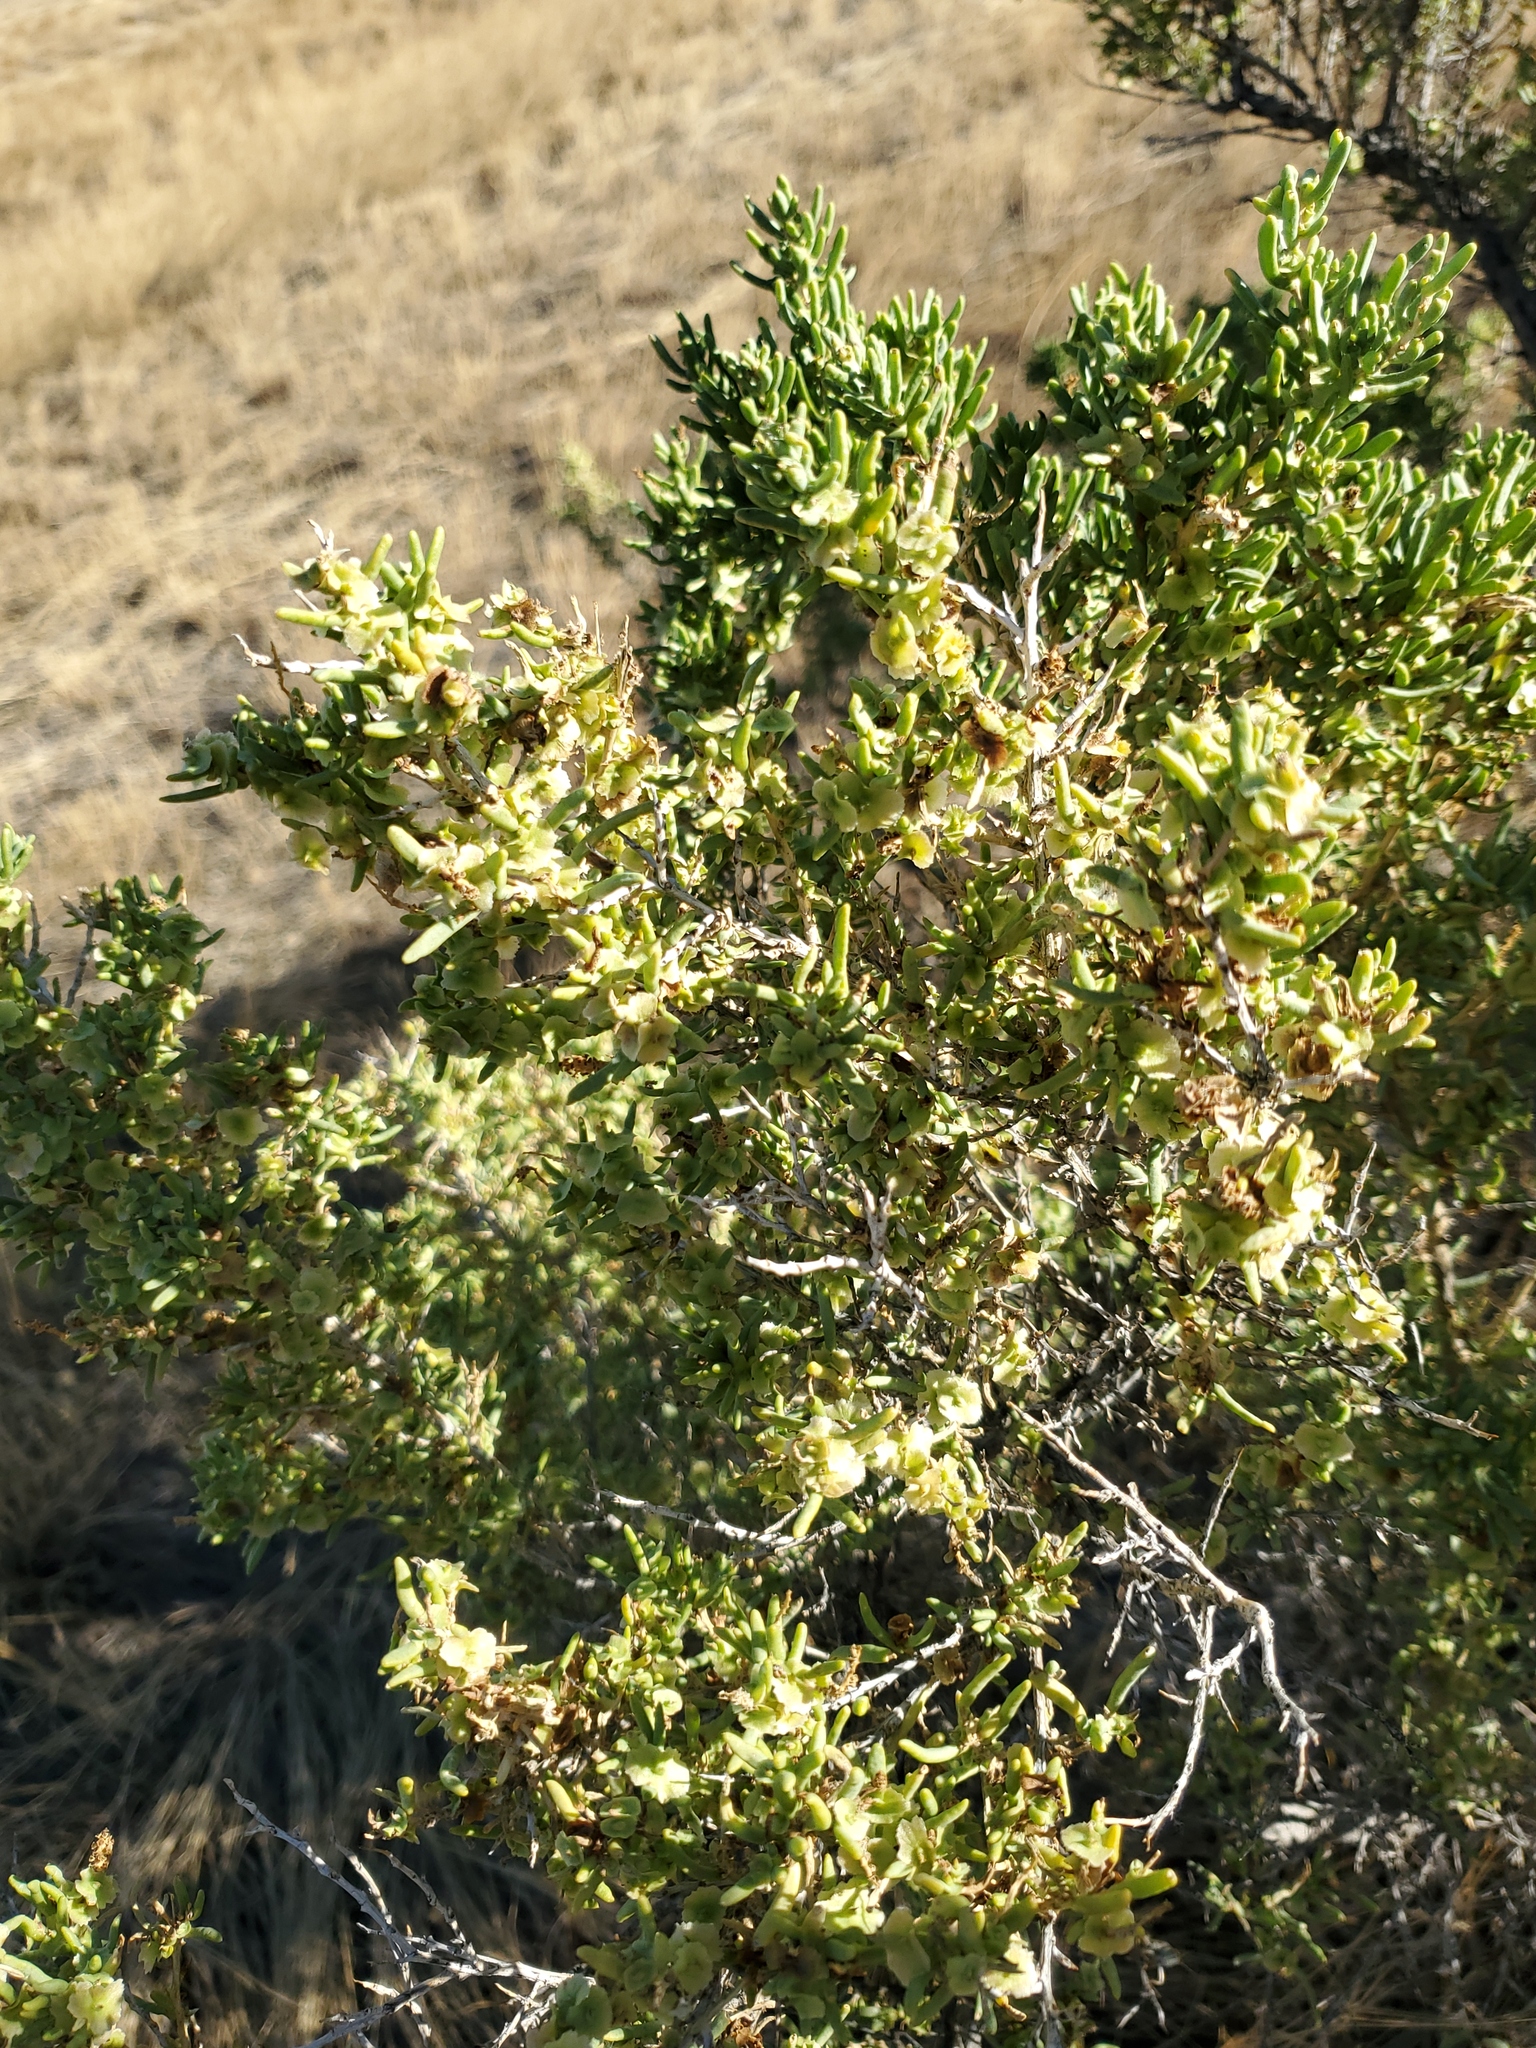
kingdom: Plantae
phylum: Tracheophyta
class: Magnoliopsida
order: Caryophyllales
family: Sarcobataceae
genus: Sarcobatus
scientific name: Sarcobatus vermiculatus
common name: Greasewood
